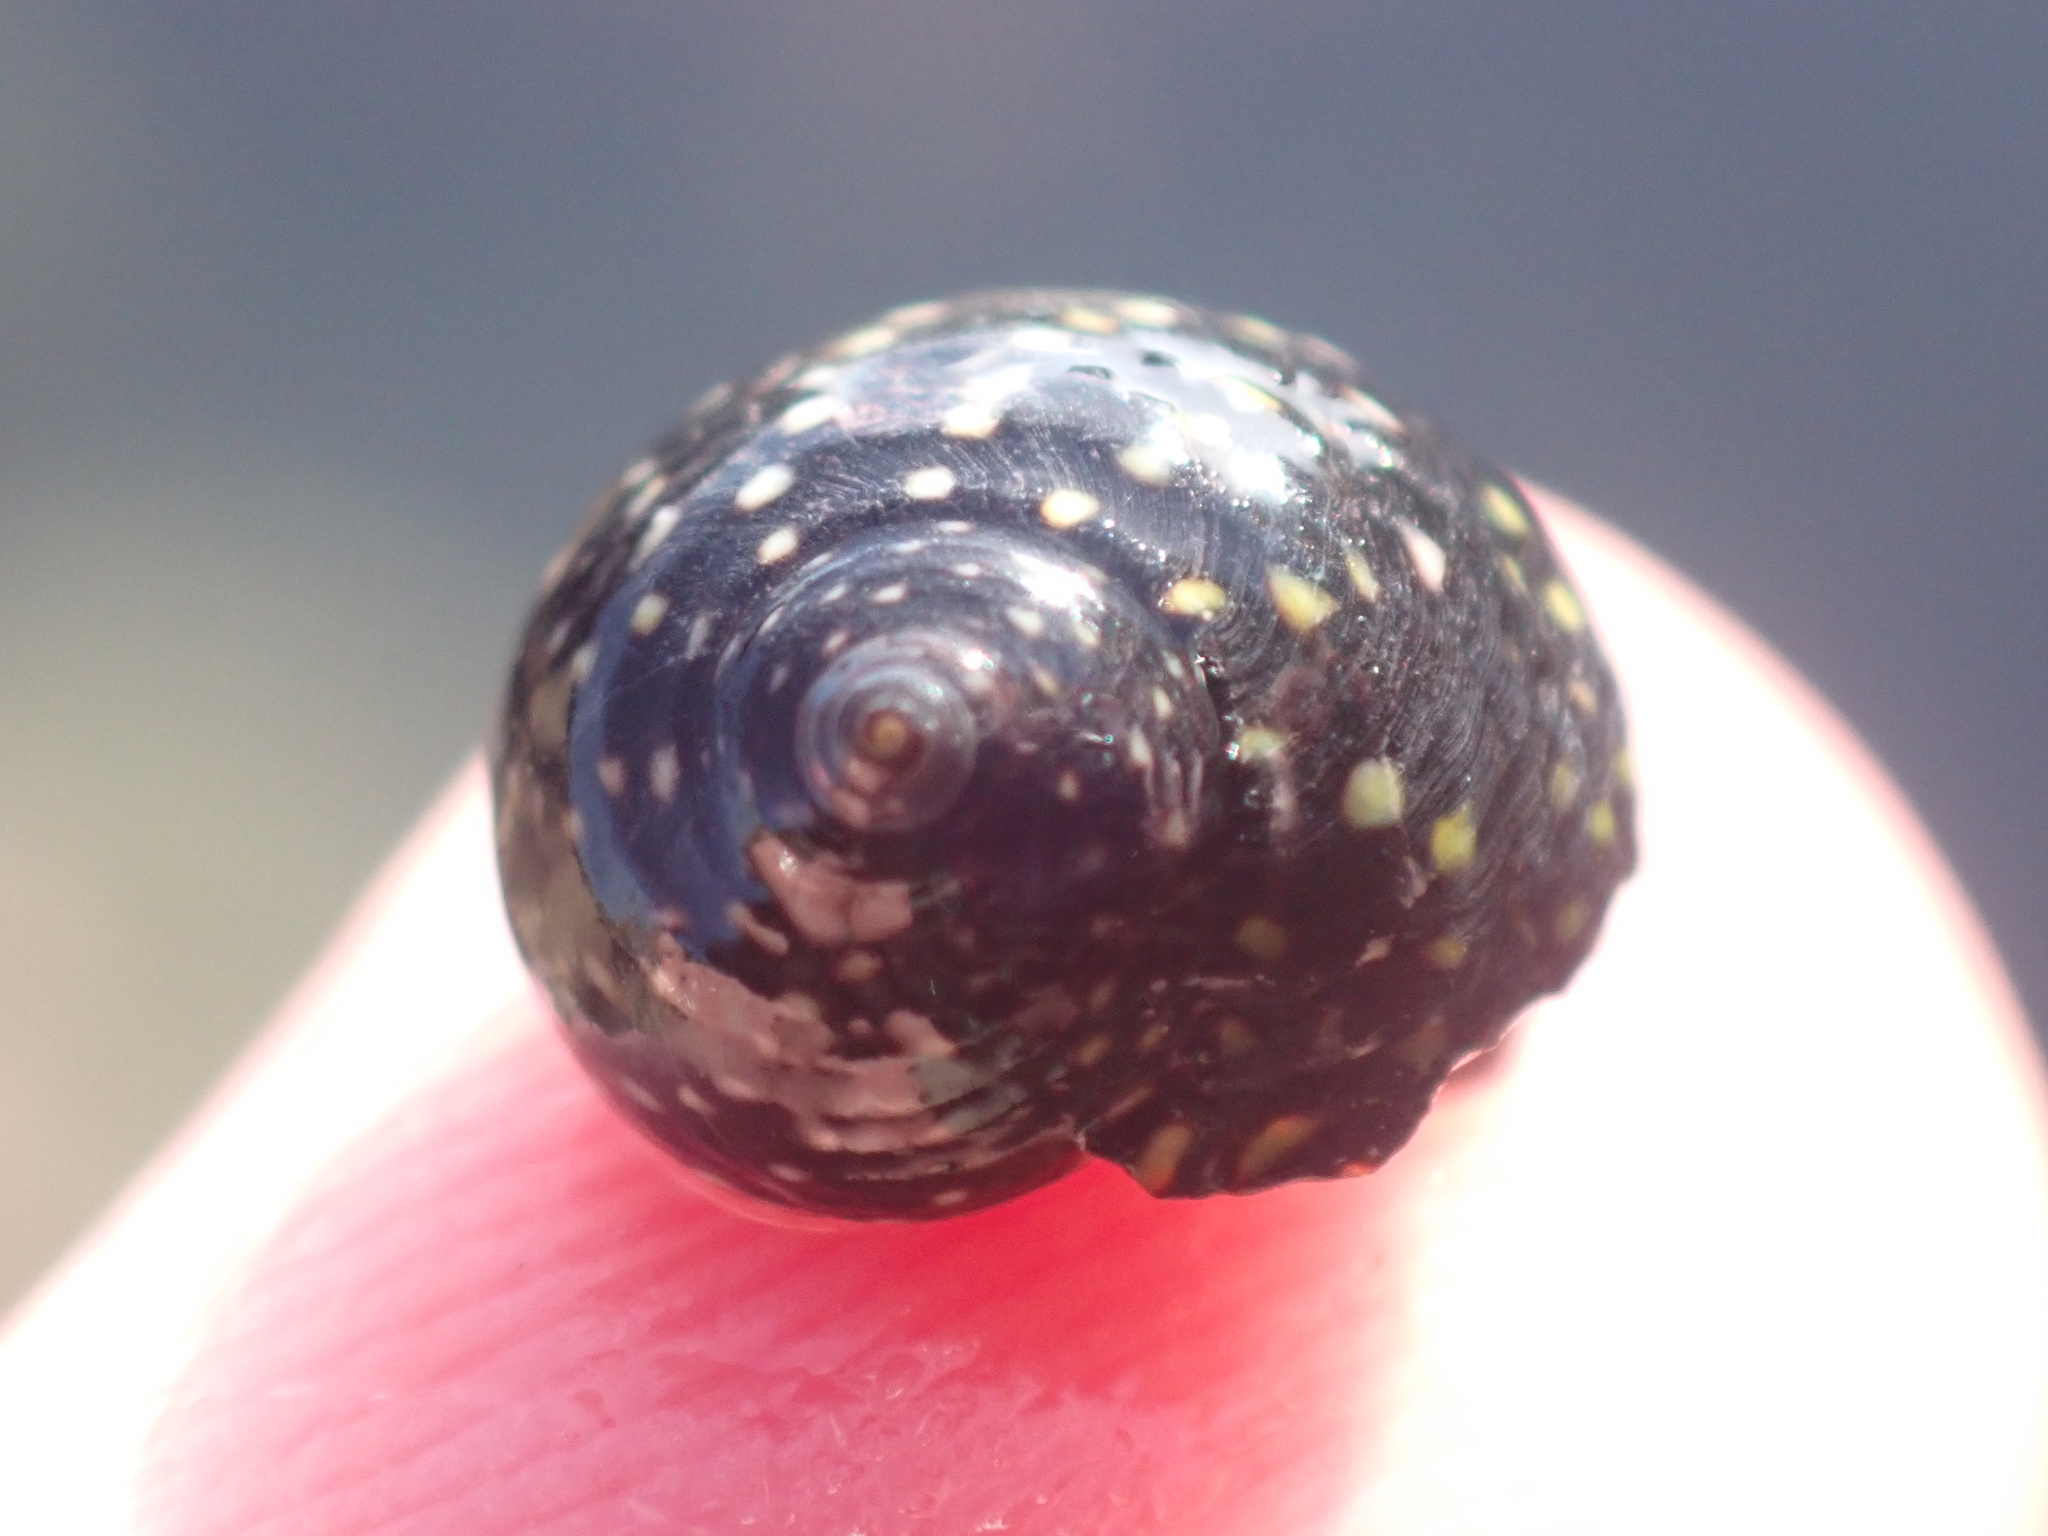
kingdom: Animalia
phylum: Mollusca
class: Gastropoda
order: Trochida
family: Trochidae
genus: Diloma
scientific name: Diloma aridum
